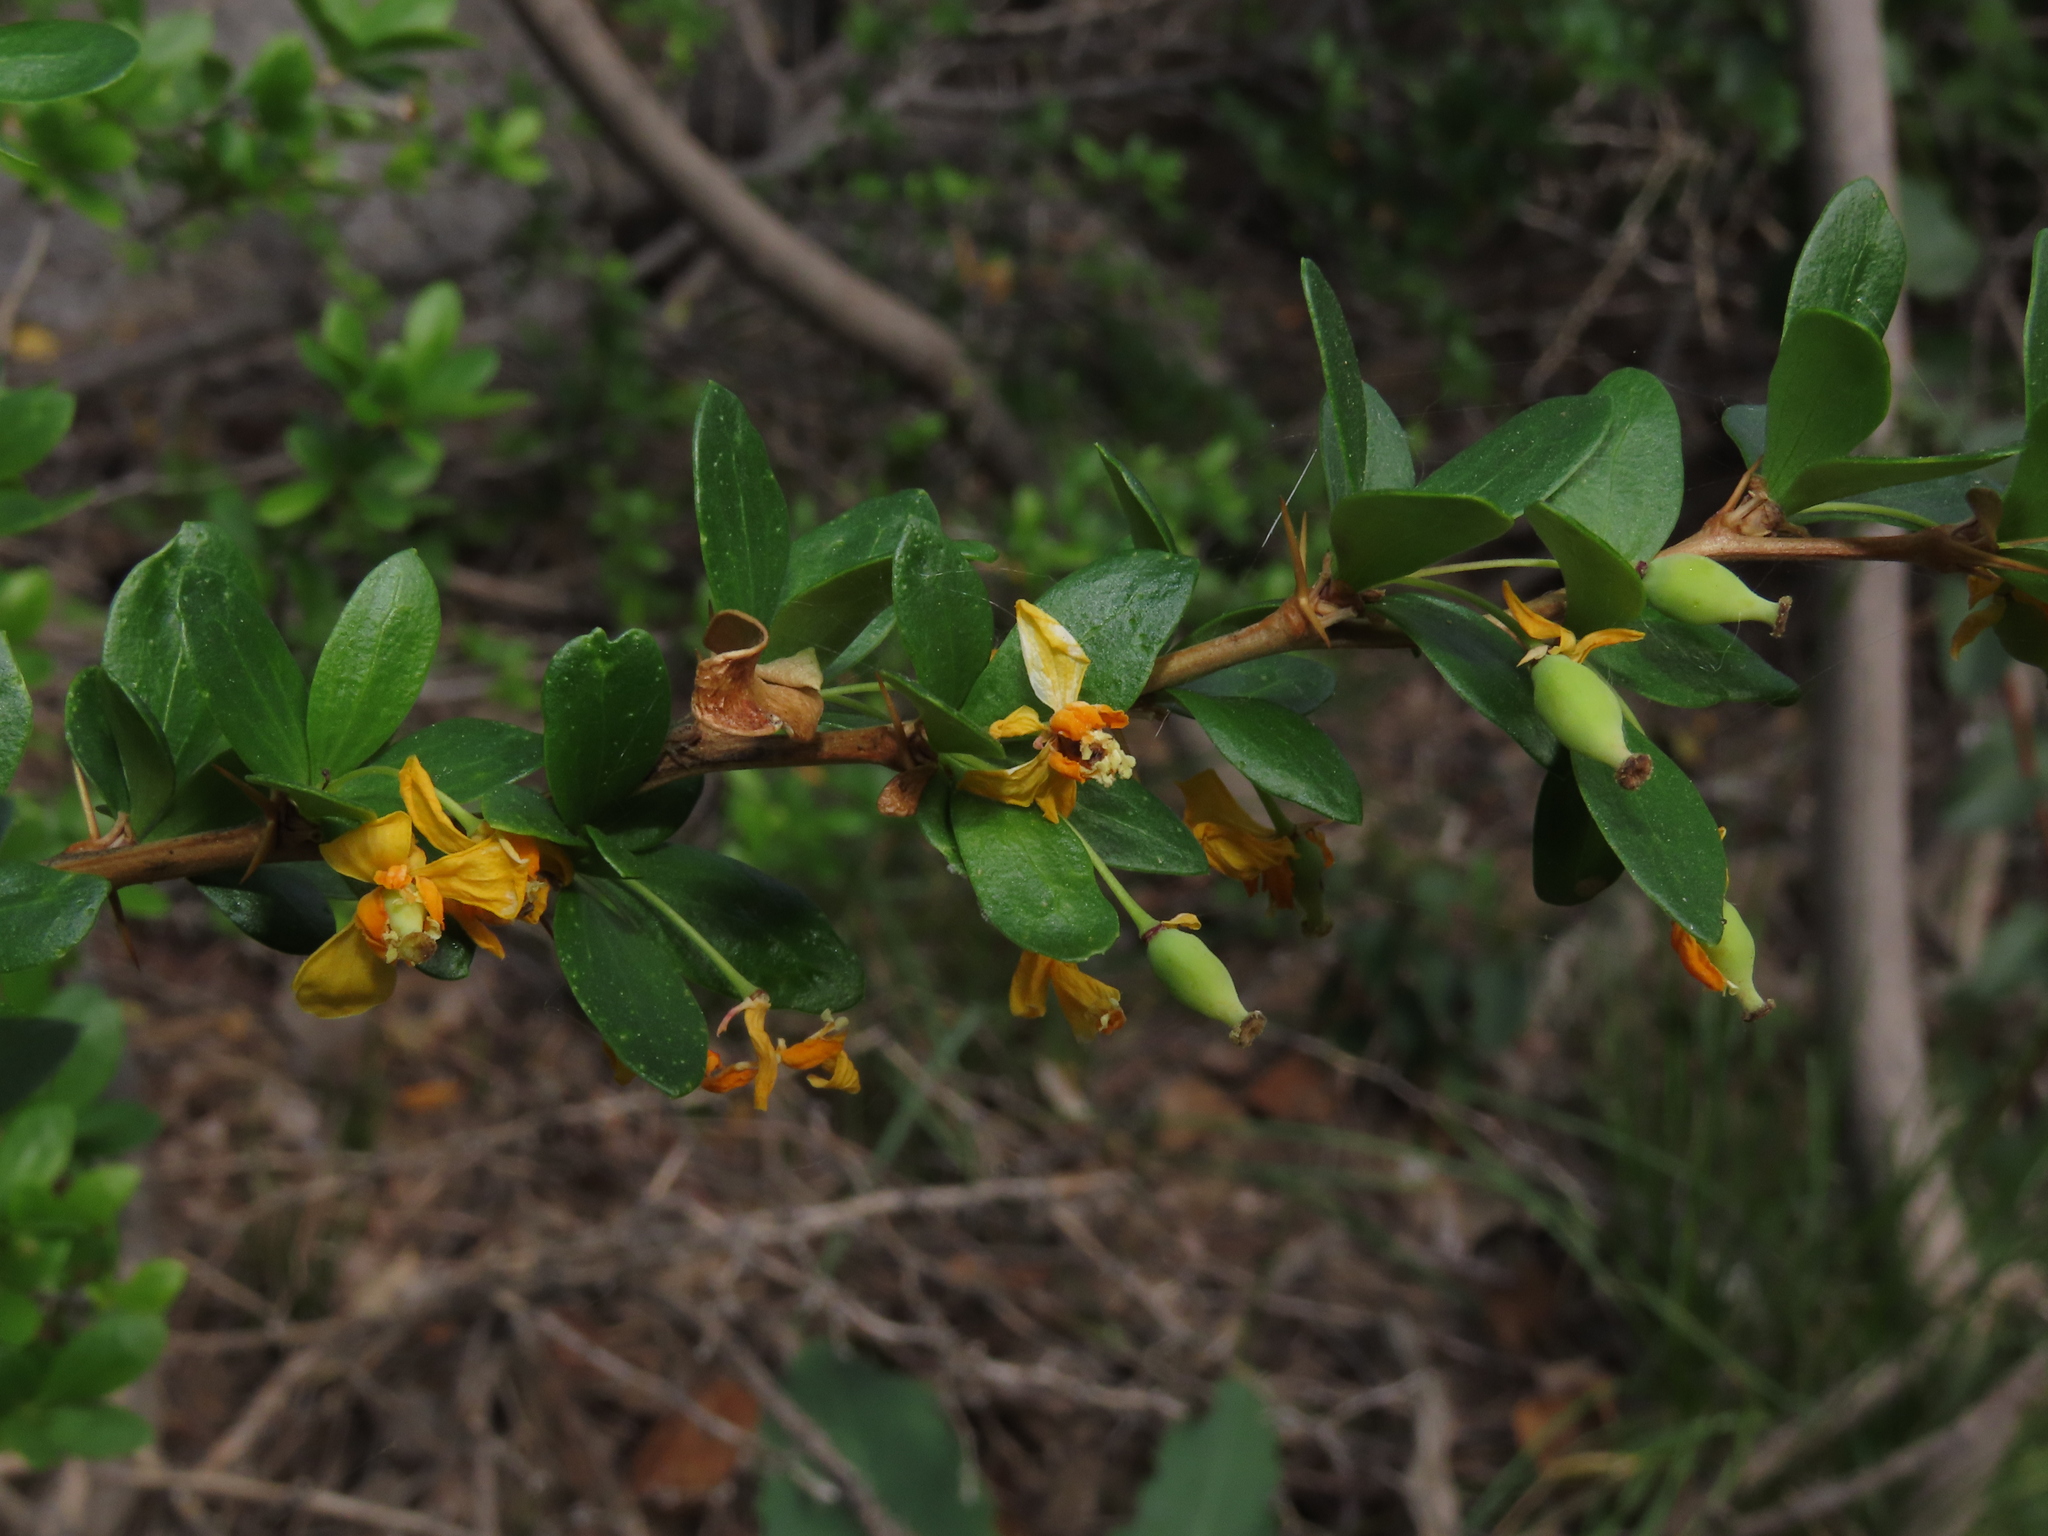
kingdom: Plantae
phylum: Tracheophyta
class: Magnoliopsida
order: Ranunculales
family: Berberidaceae
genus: Berberis
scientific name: Berberis montana
